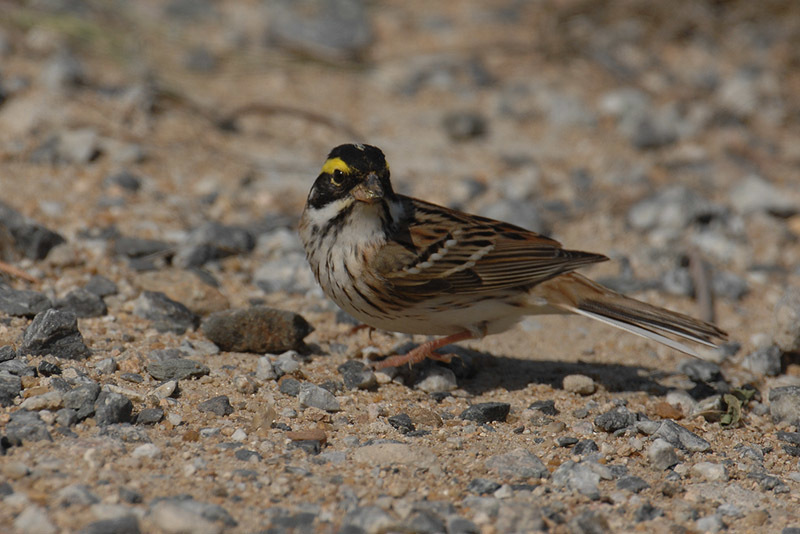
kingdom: Animalia
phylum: Chordata
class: Aves
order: Passeriformes
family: Emberizidae
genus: Emberiza
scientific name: Emberiza chrysophrys
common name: Yellow-browed bunting
